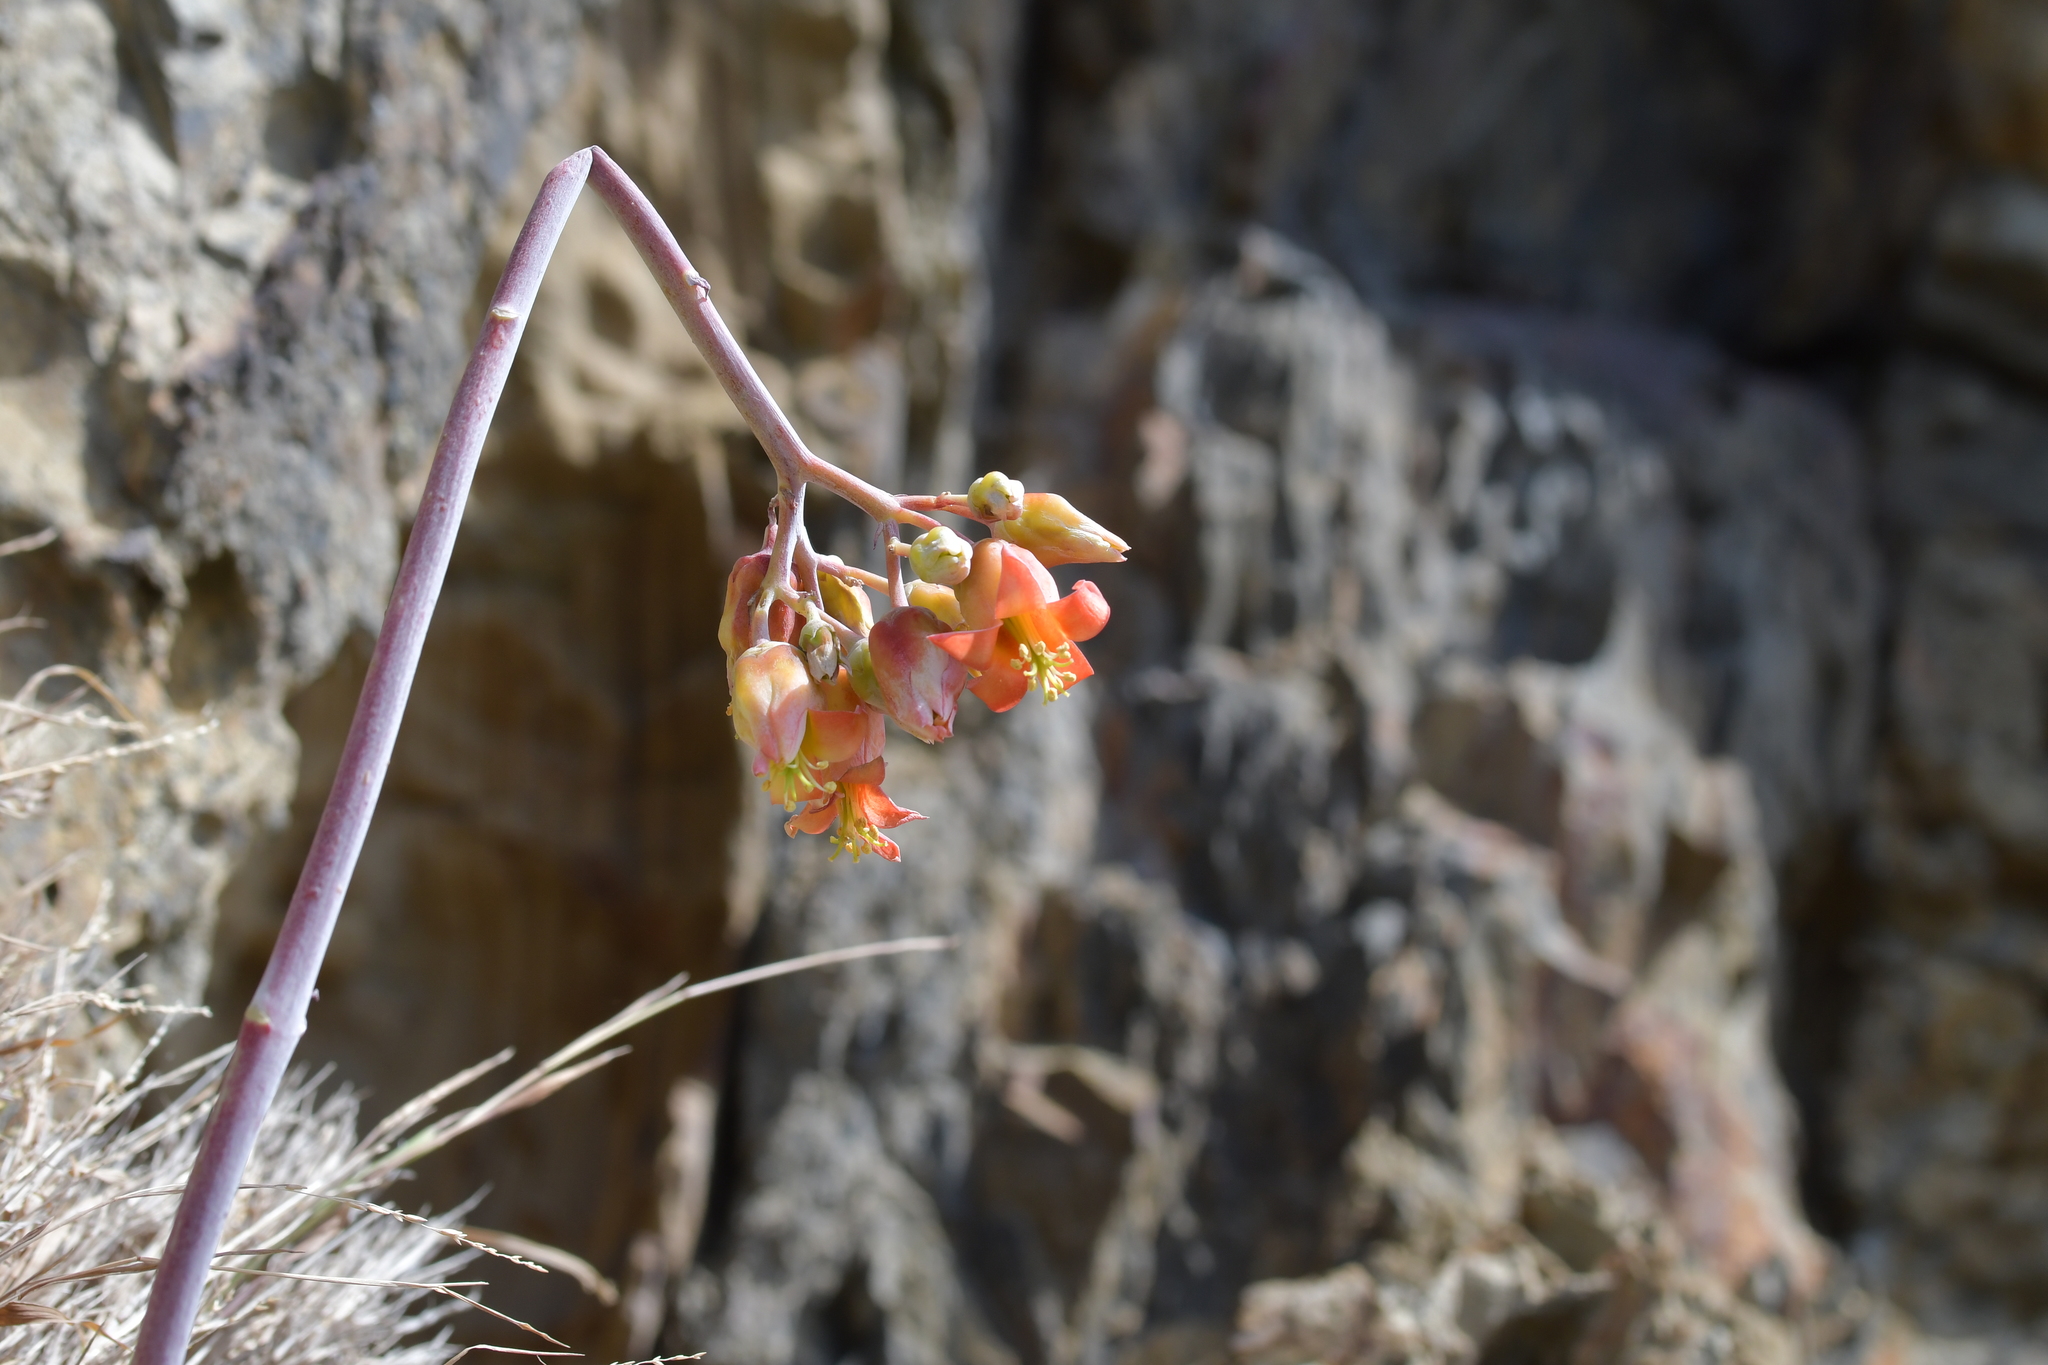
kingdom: Plantae
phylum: Tracheophyta
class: Magnoliopsida
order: Saxifragales
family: Crassulaceae
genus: Cotyledon
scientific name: Cotyledon orbiculata
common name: Pig's ear
